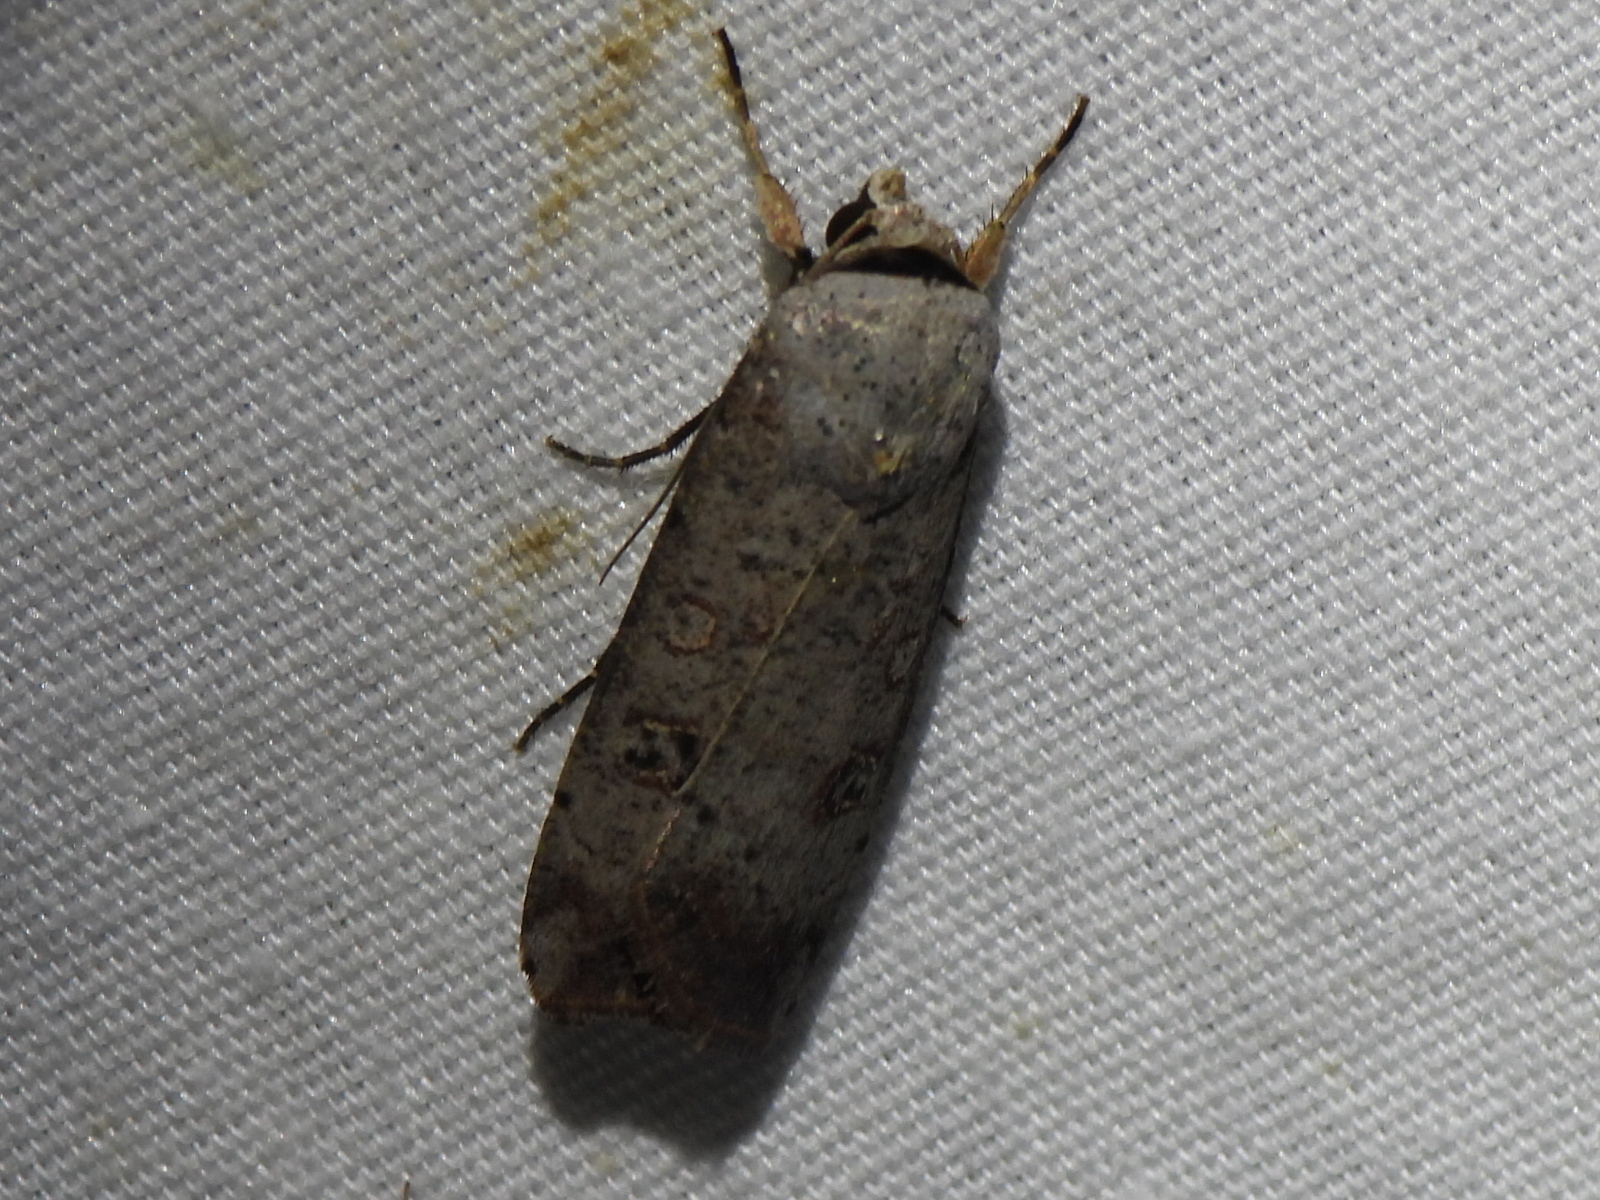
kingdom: Animalia
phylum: Arthropoda
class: Insecta
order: Lepidoptera
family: Noctuidae
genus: Anicla
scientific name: Anicla infecta
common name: Green cutworm
